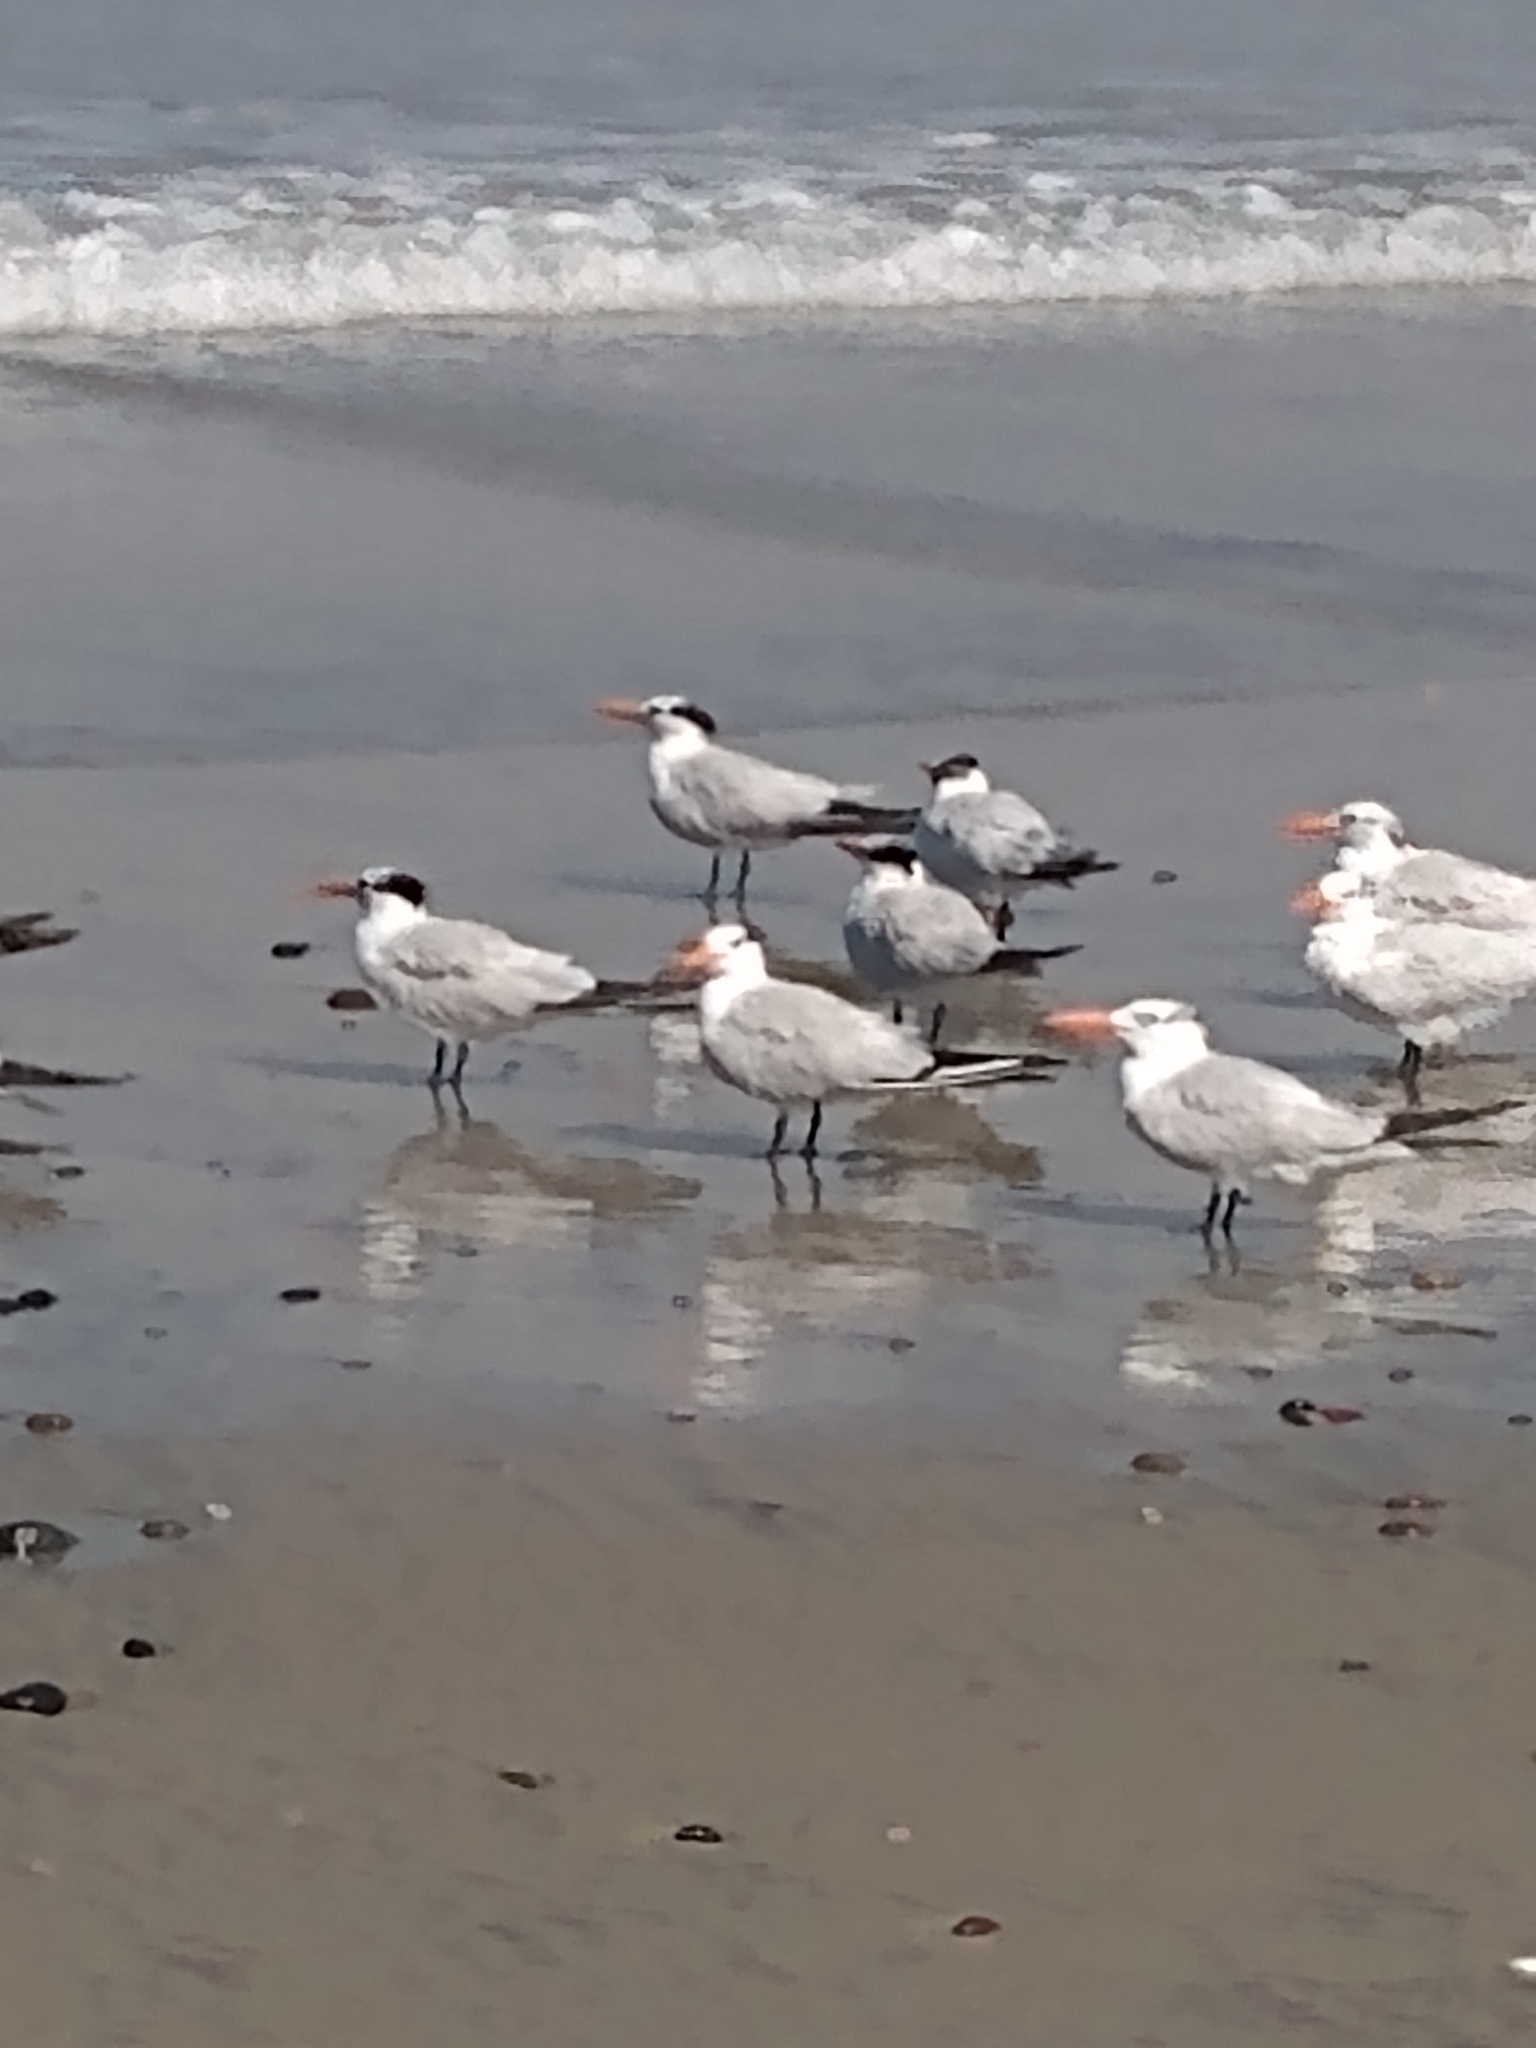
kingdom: Animalia
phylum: Chordata
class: Aves
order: Charadriiformes
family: Laridae
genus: Thalasseus
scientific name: Thalasseus maximus
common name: Royal tern
